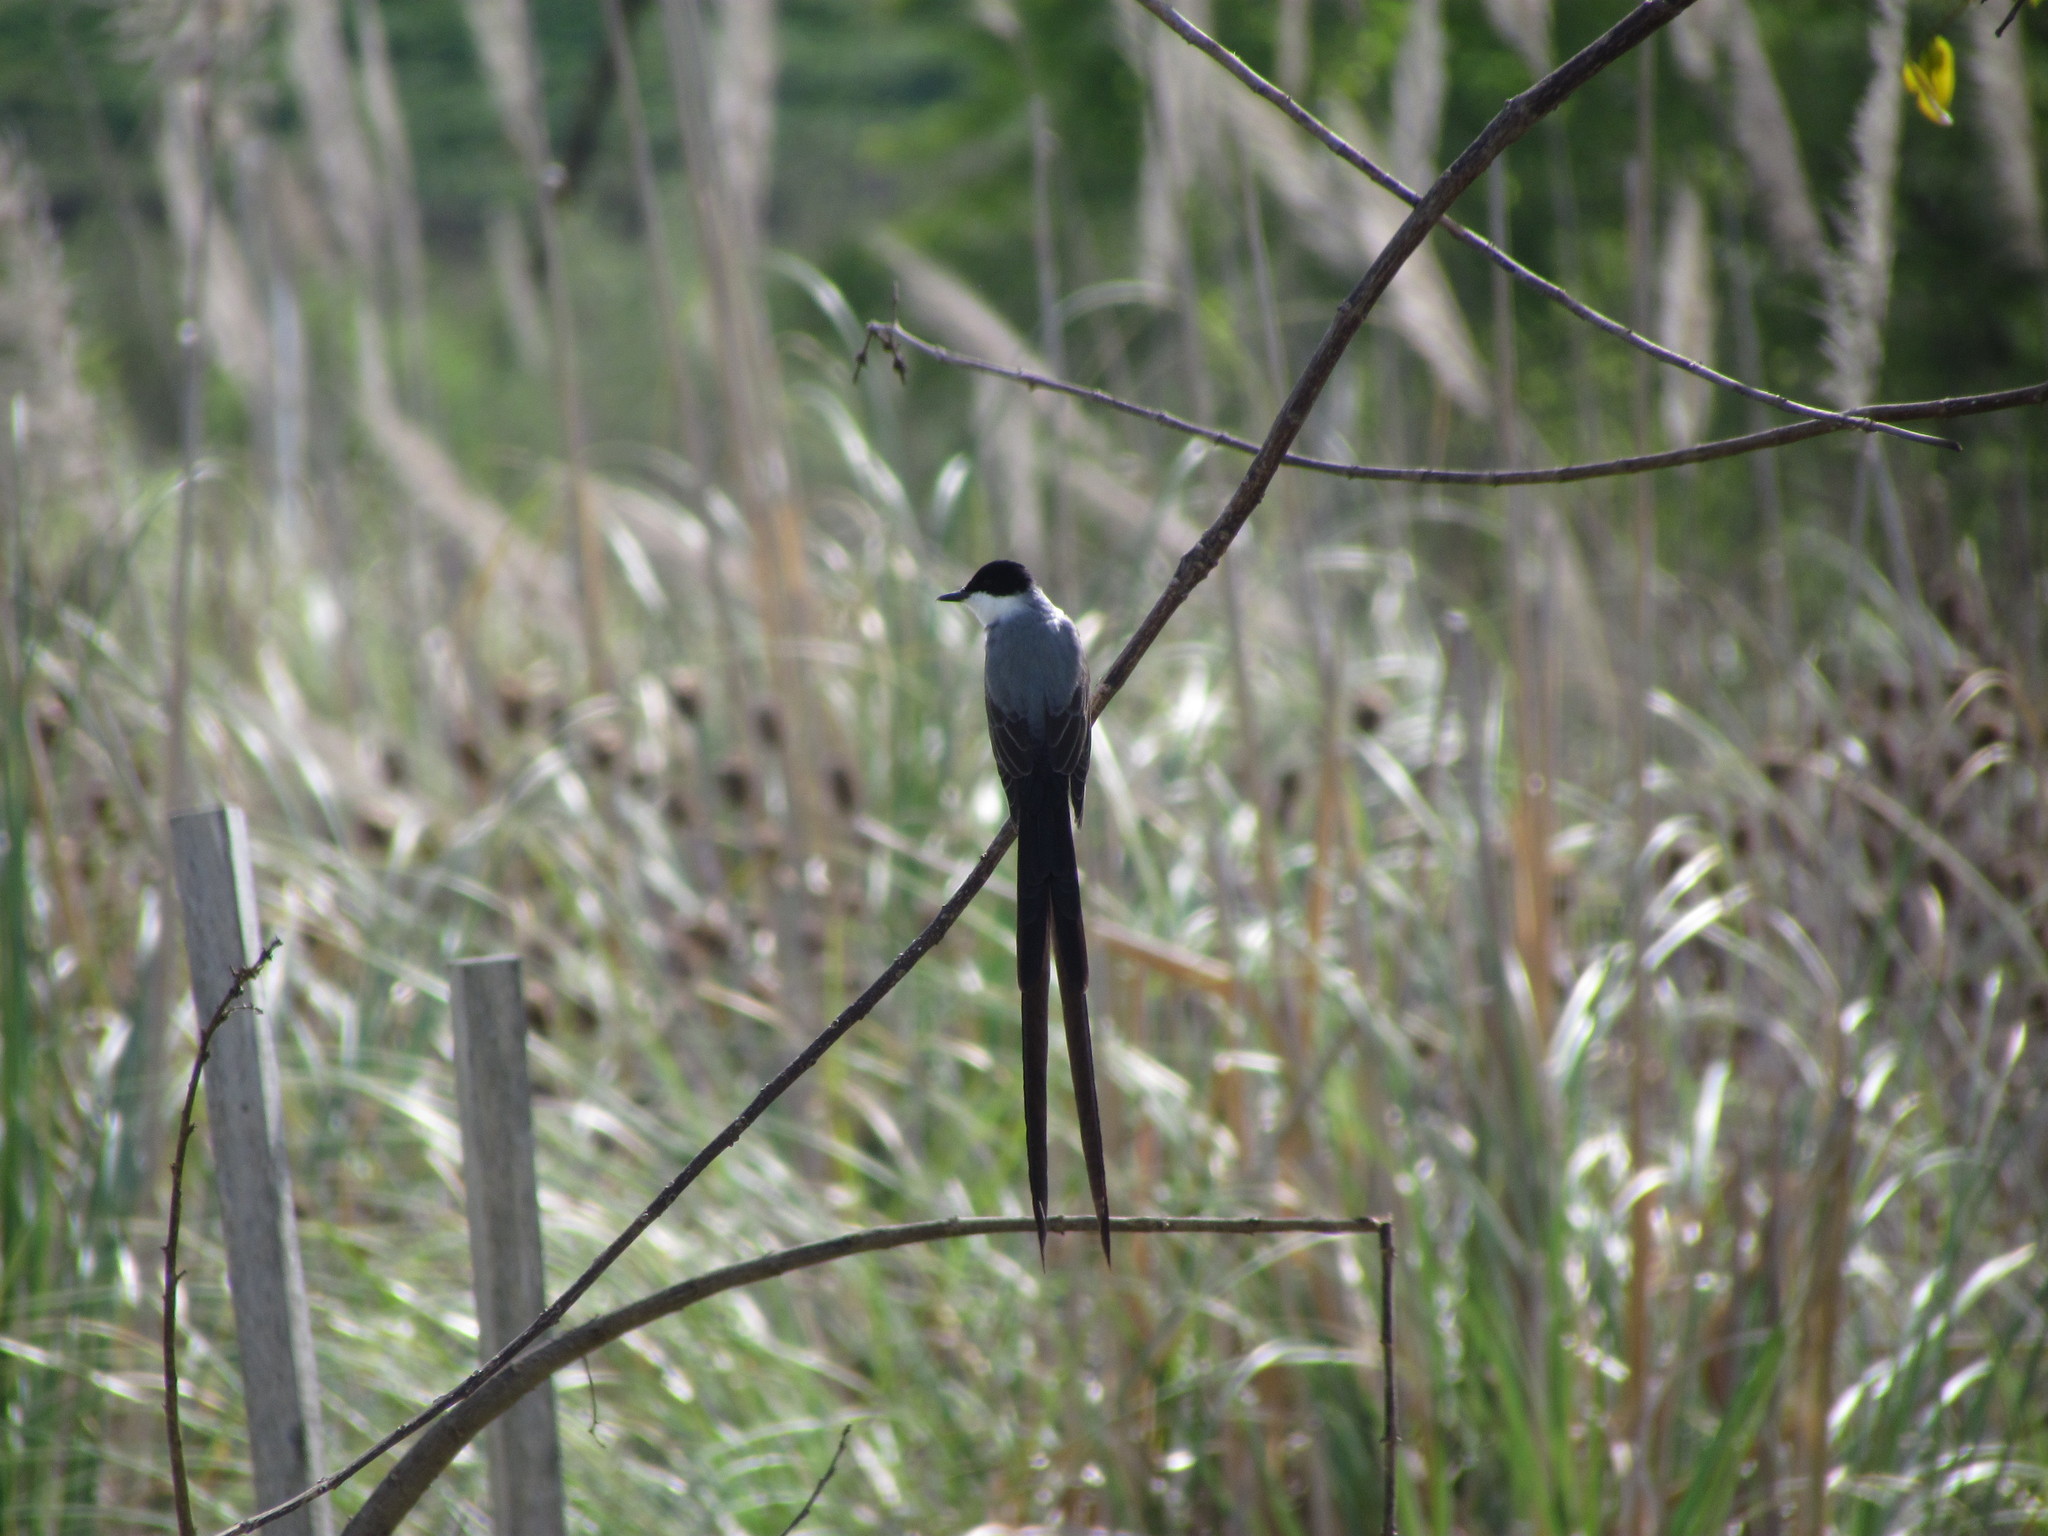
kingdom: Animalia
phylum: Chordata
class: Aves
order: Passeriformes
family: Tyrannidae
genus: Tyrannus
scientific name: Tyrannus savana
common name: Fork-tailed flycatcher
